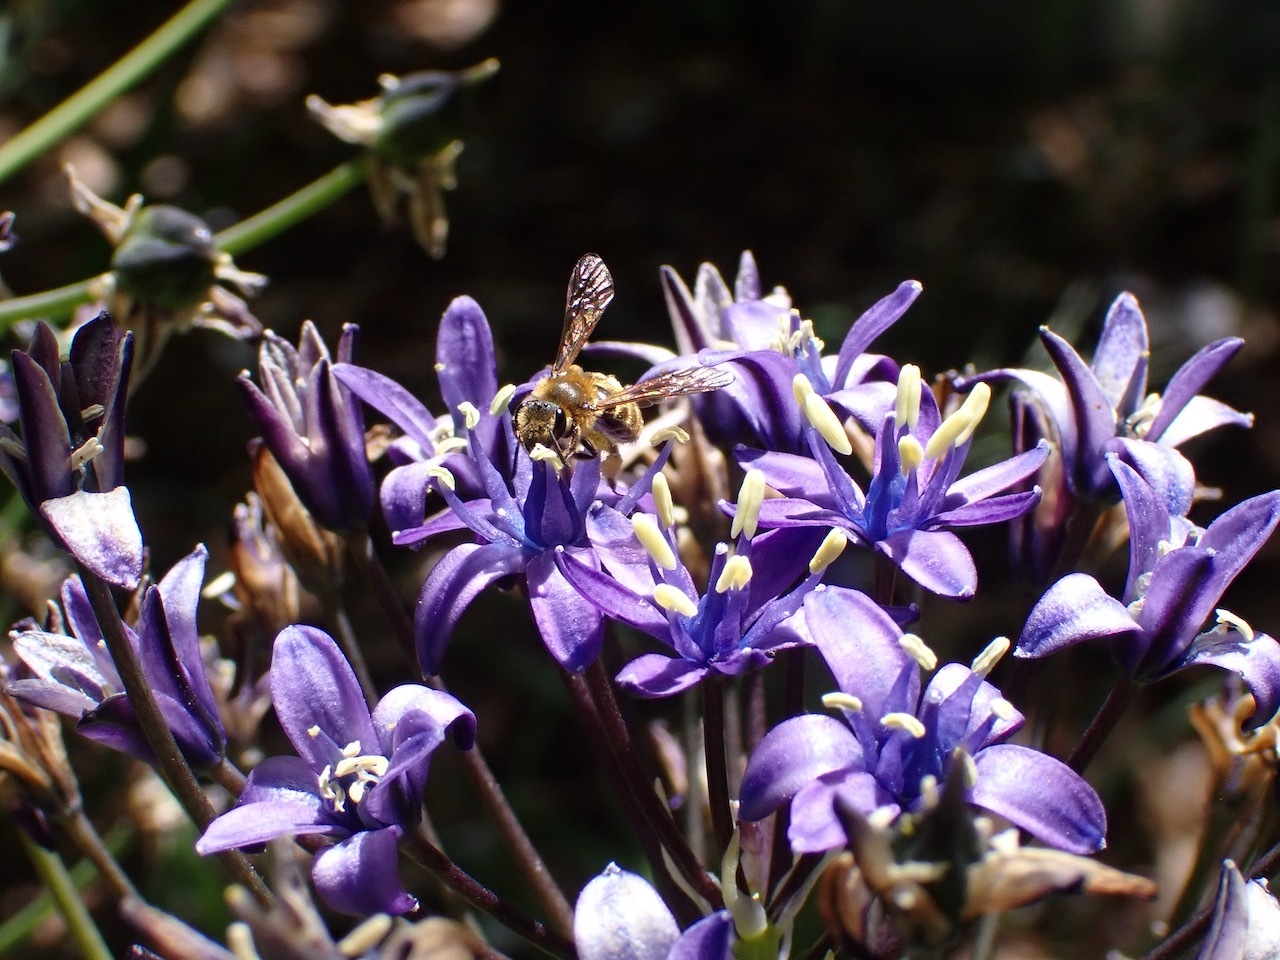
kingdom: Animalia
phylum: Arthropoda
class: Insecta
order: Hymenoptera
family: Andrenidae
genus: Andrena
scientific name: Andrena auricoma
